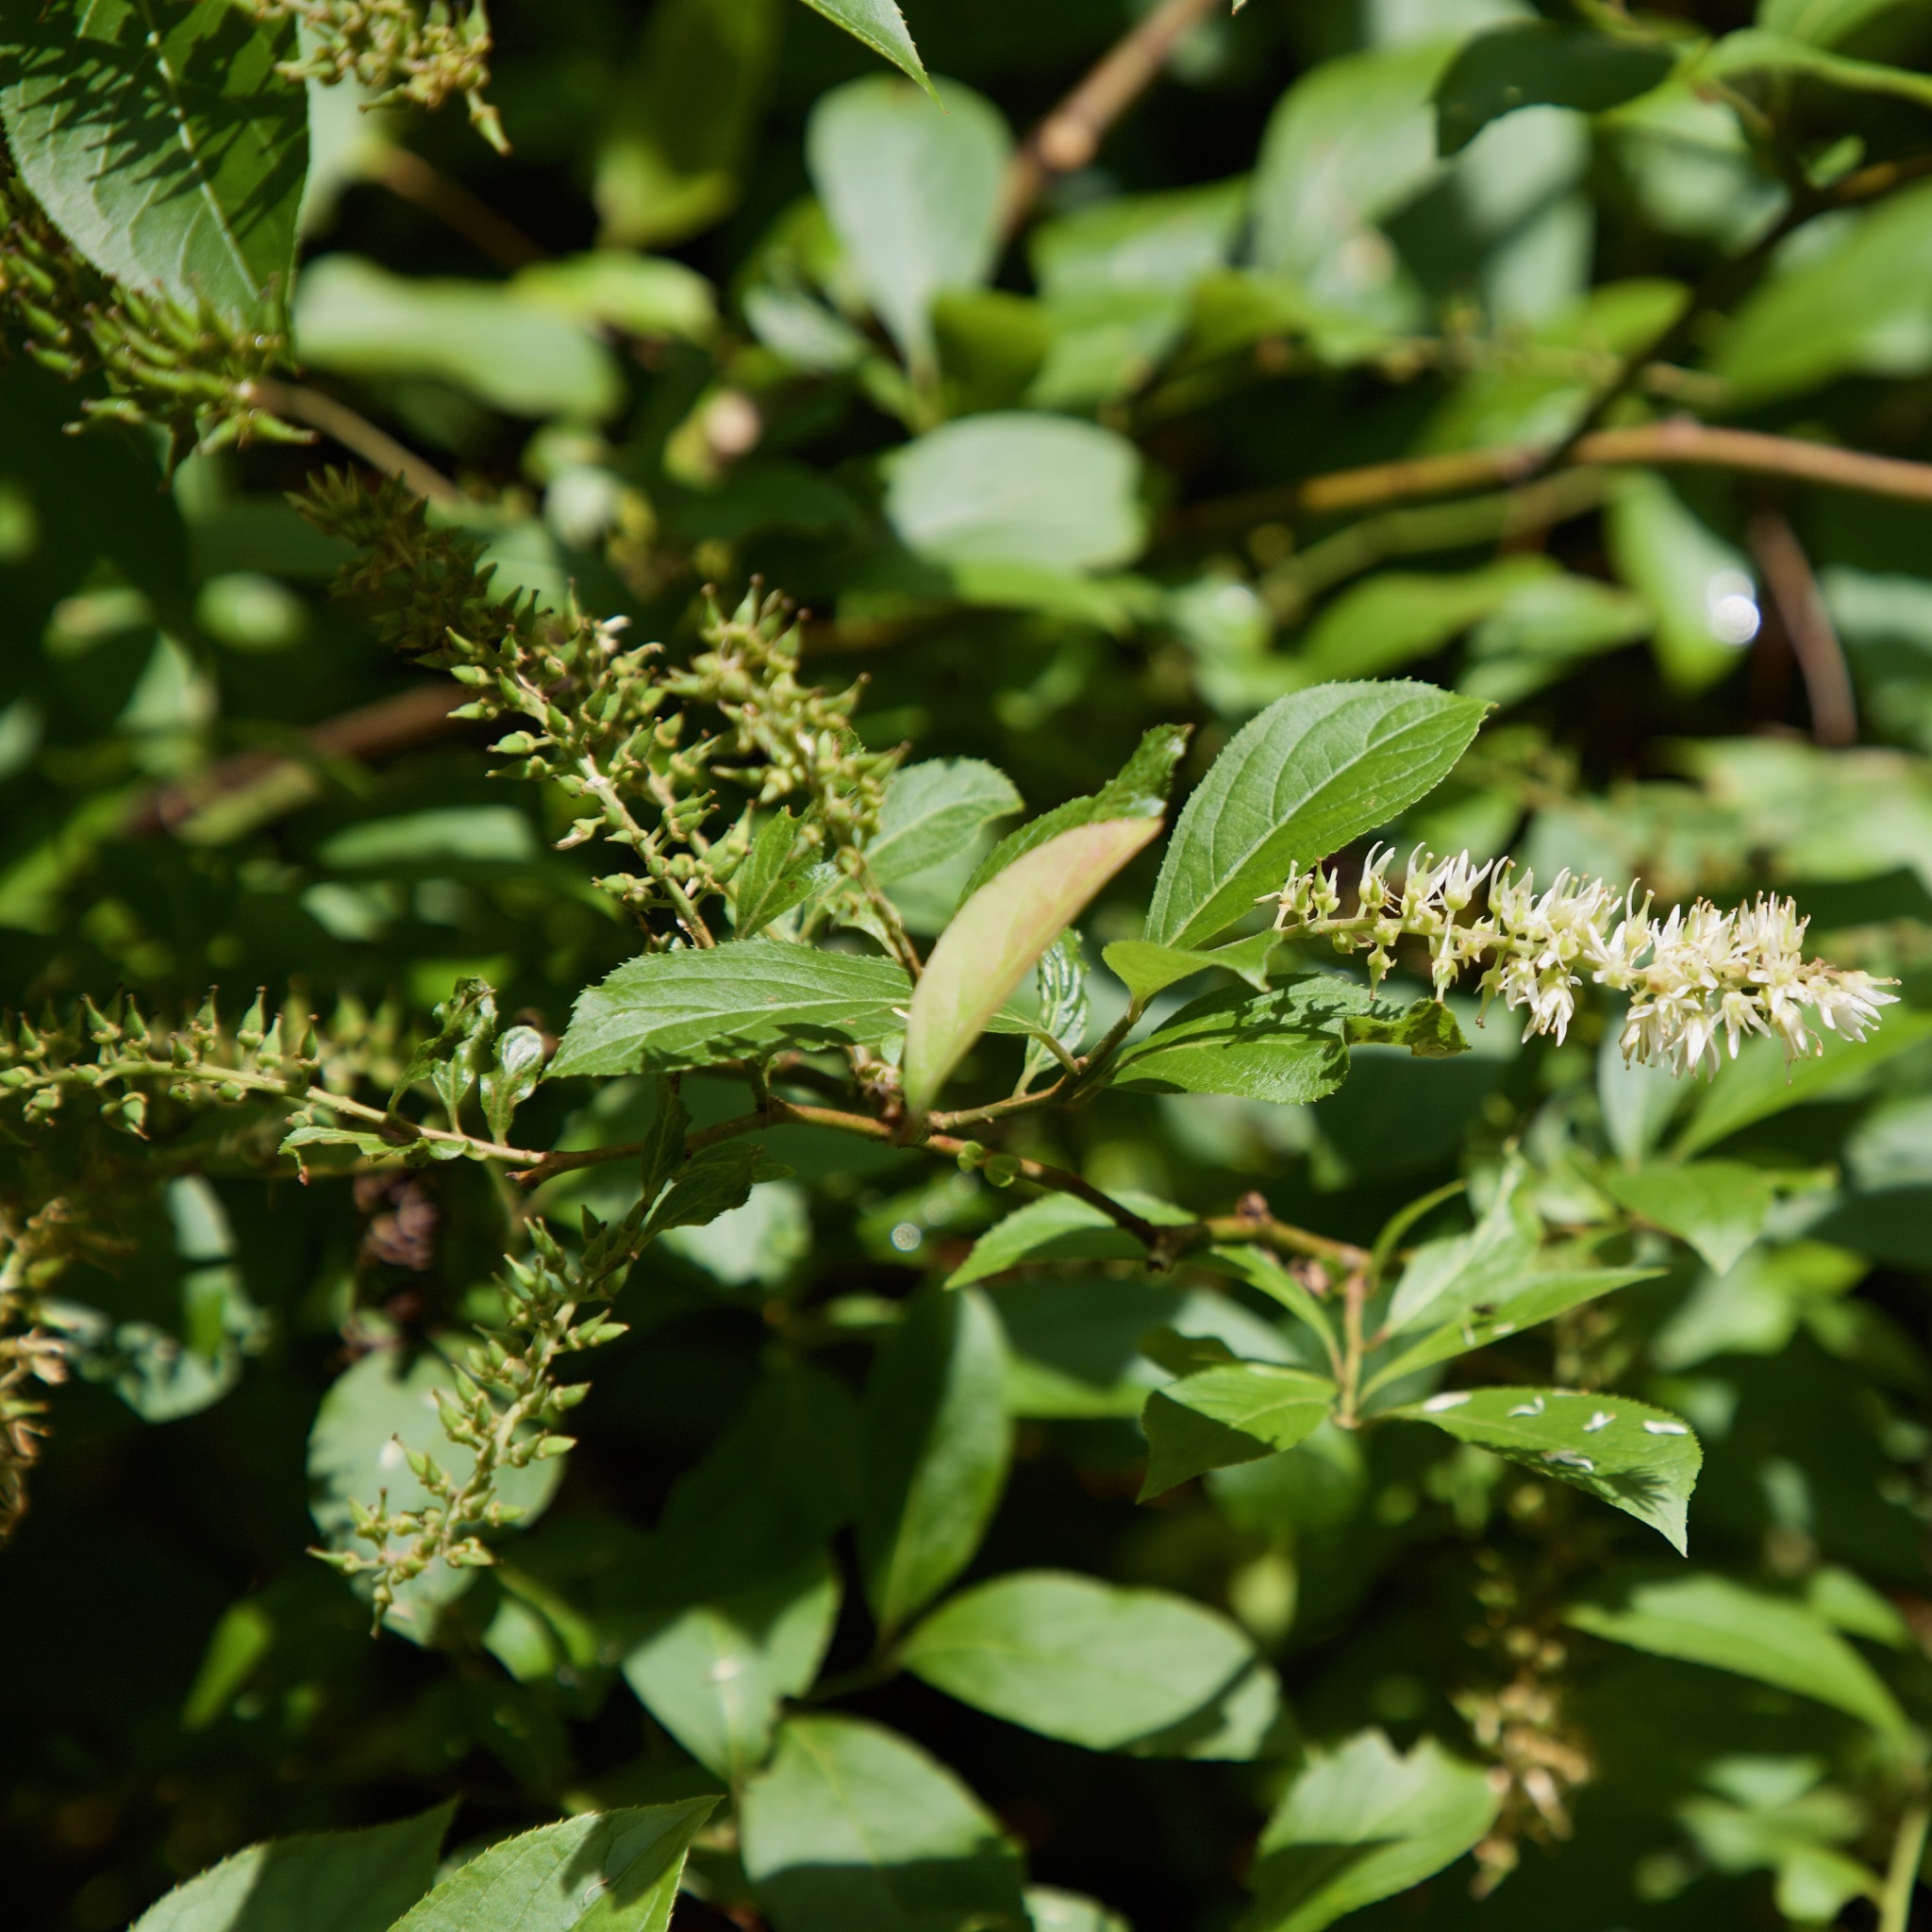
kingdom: Plantae
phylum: Tracheophyta
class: Magnoliopsida
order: Saxifragales
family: Iteaceae
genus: Itea
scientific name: Itea virginica
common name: Sweetspire
